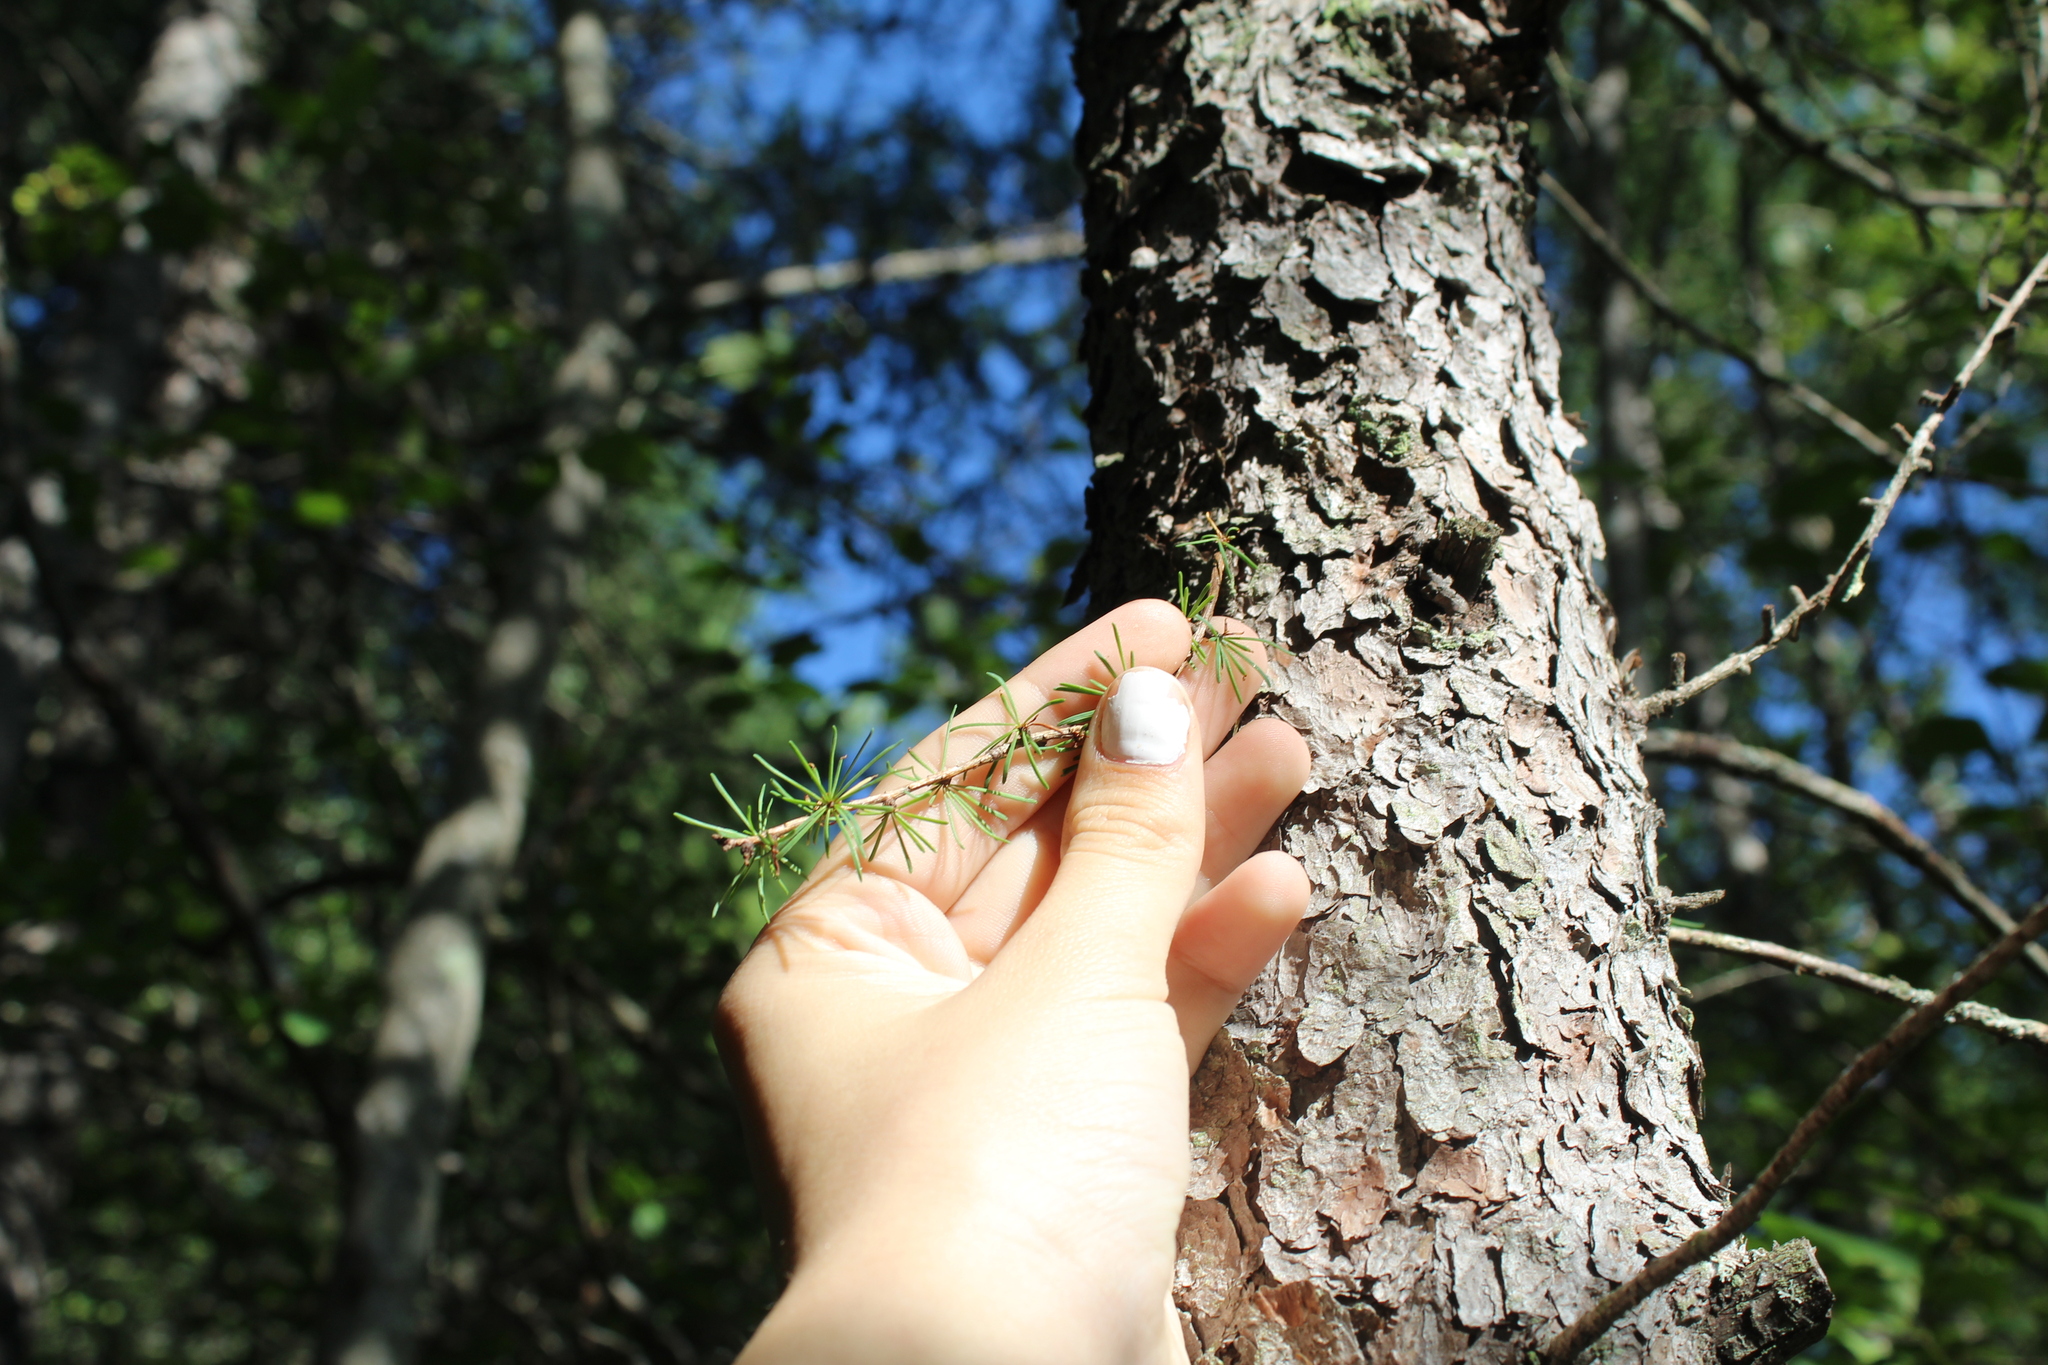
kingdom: Plantae
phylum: Tracheophyta
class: Pinopsida
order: Pinales
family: Pinaceae
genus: Larix
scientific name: Larix laricina
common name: American larch
